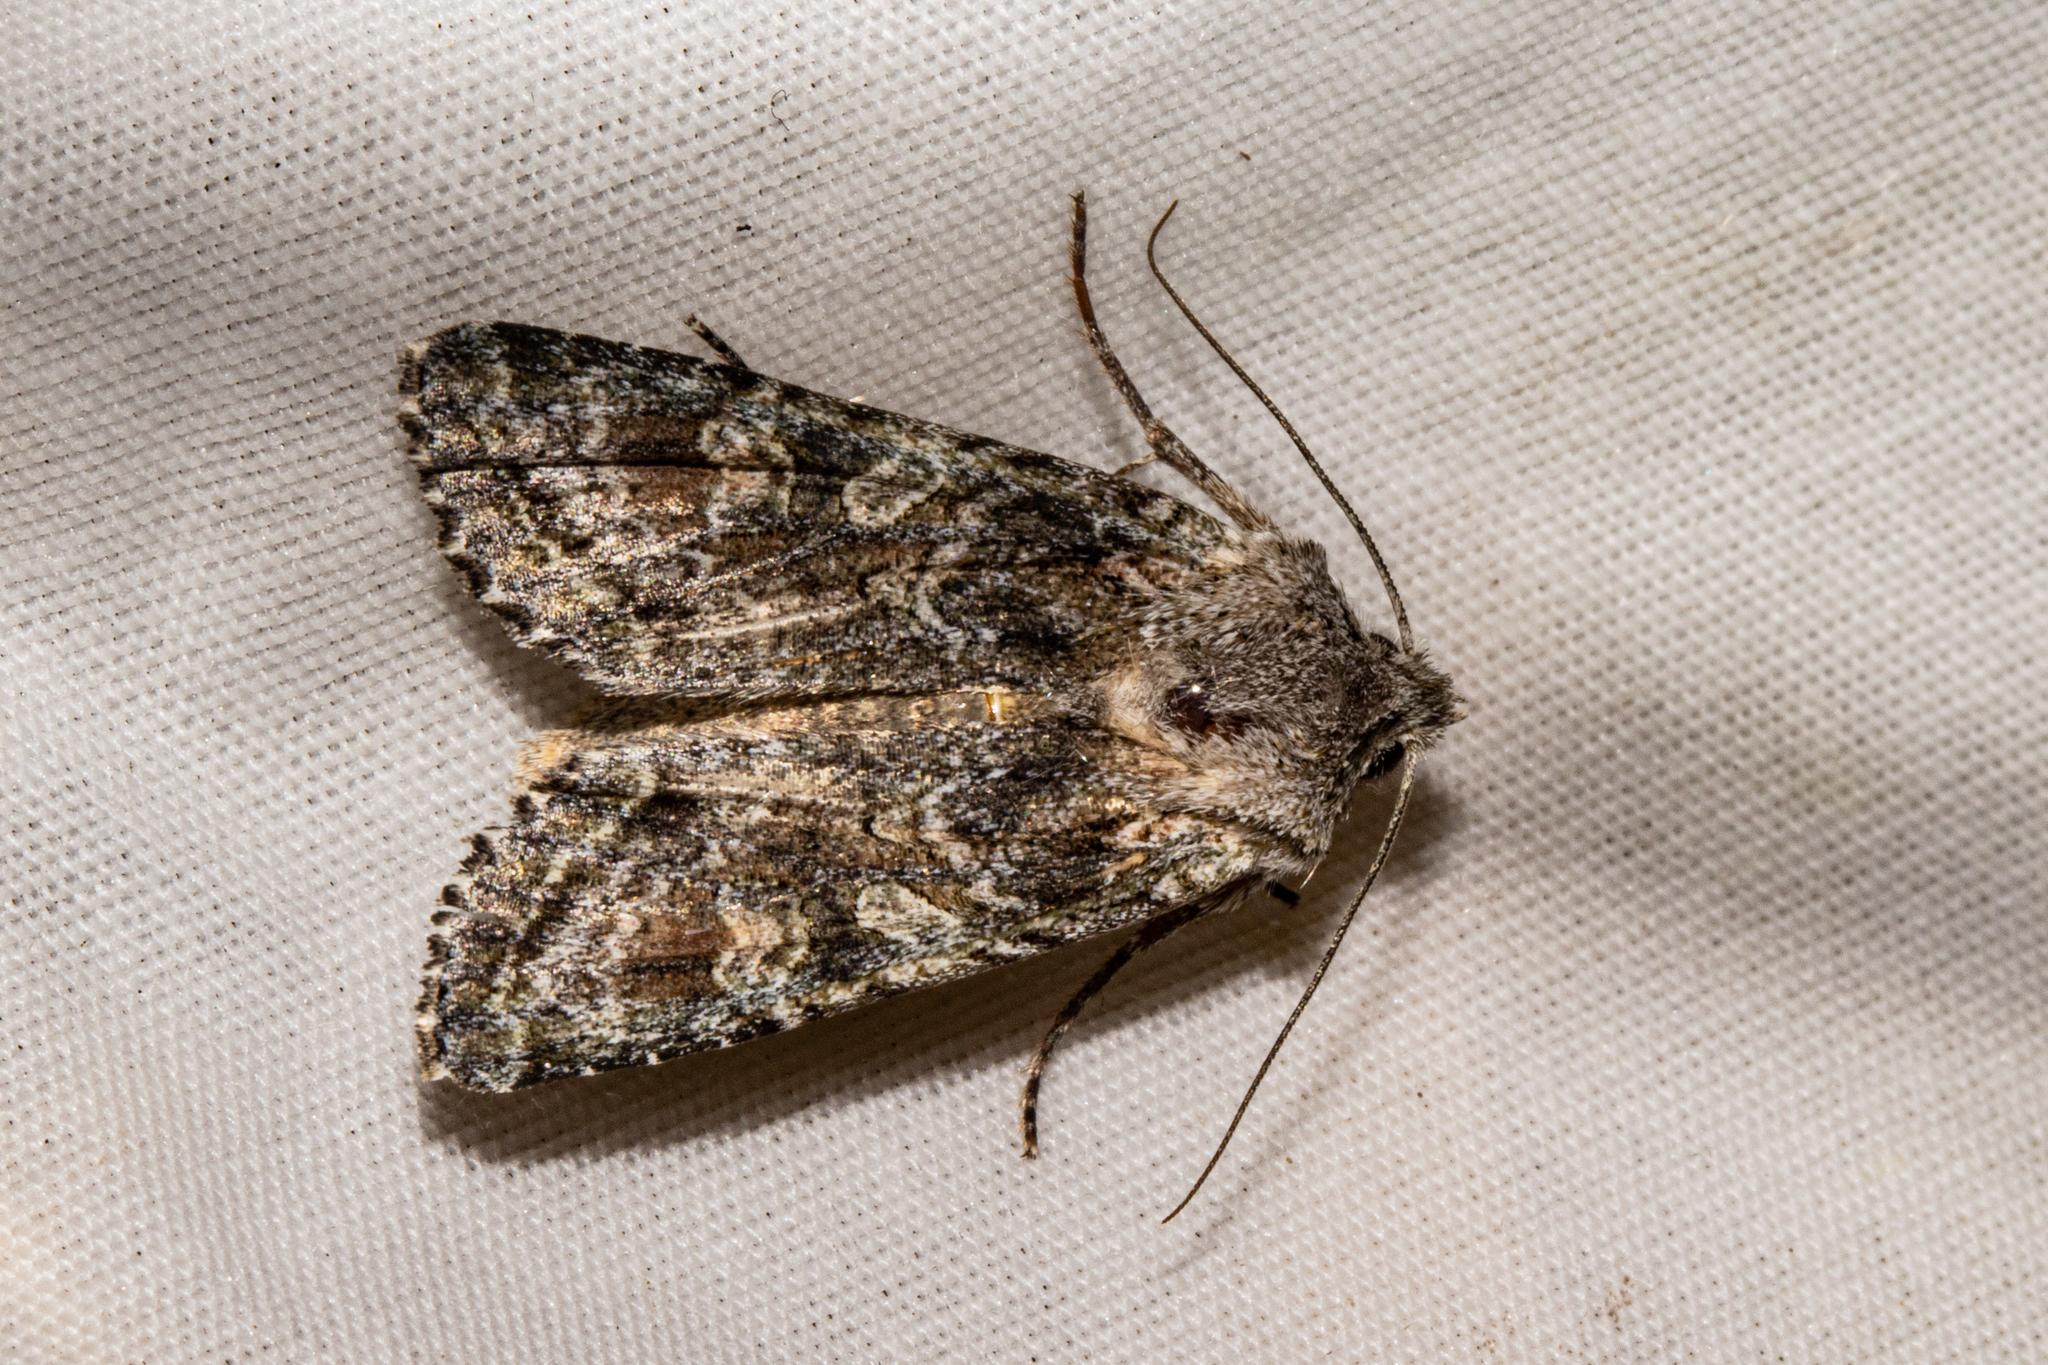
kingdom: Animalia
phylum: Arthropoda
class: Insecta
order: Lepidoptera
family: Noctuidae
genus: Ichneutica
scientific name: Ichneutica mutans
